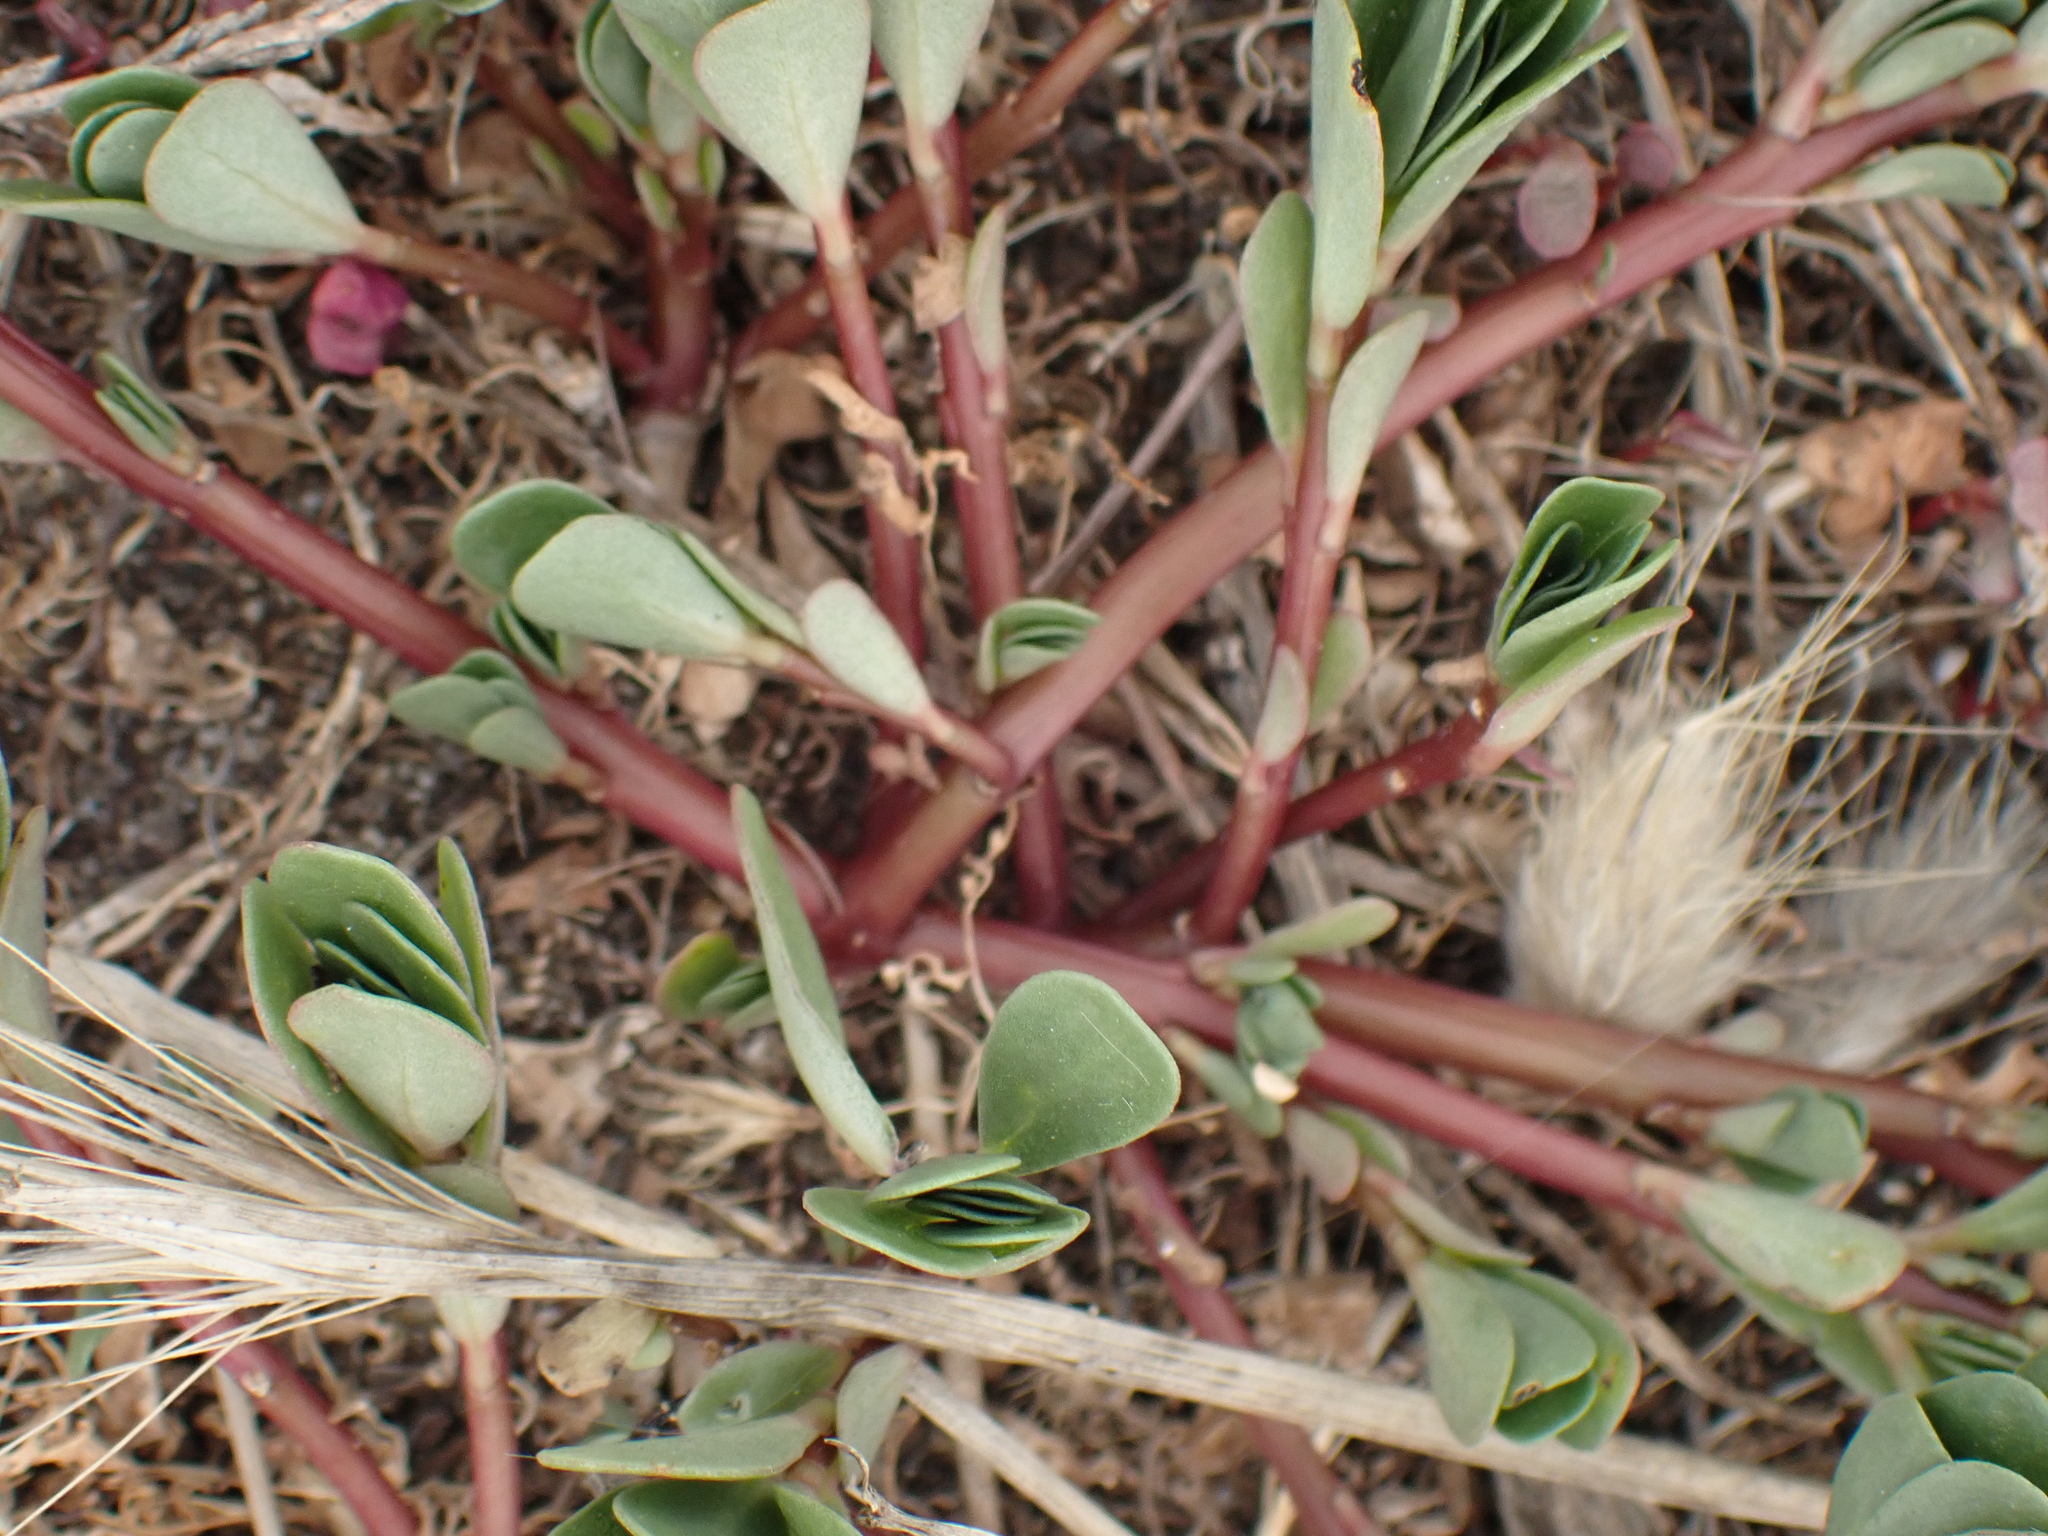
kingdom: Plantae
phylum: Tracheophyta
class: Magnoliopsida
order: Caryophyllales
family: Portulacaceae
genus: Portulaca
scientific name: Portulaca oleracea
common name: Common purslane
